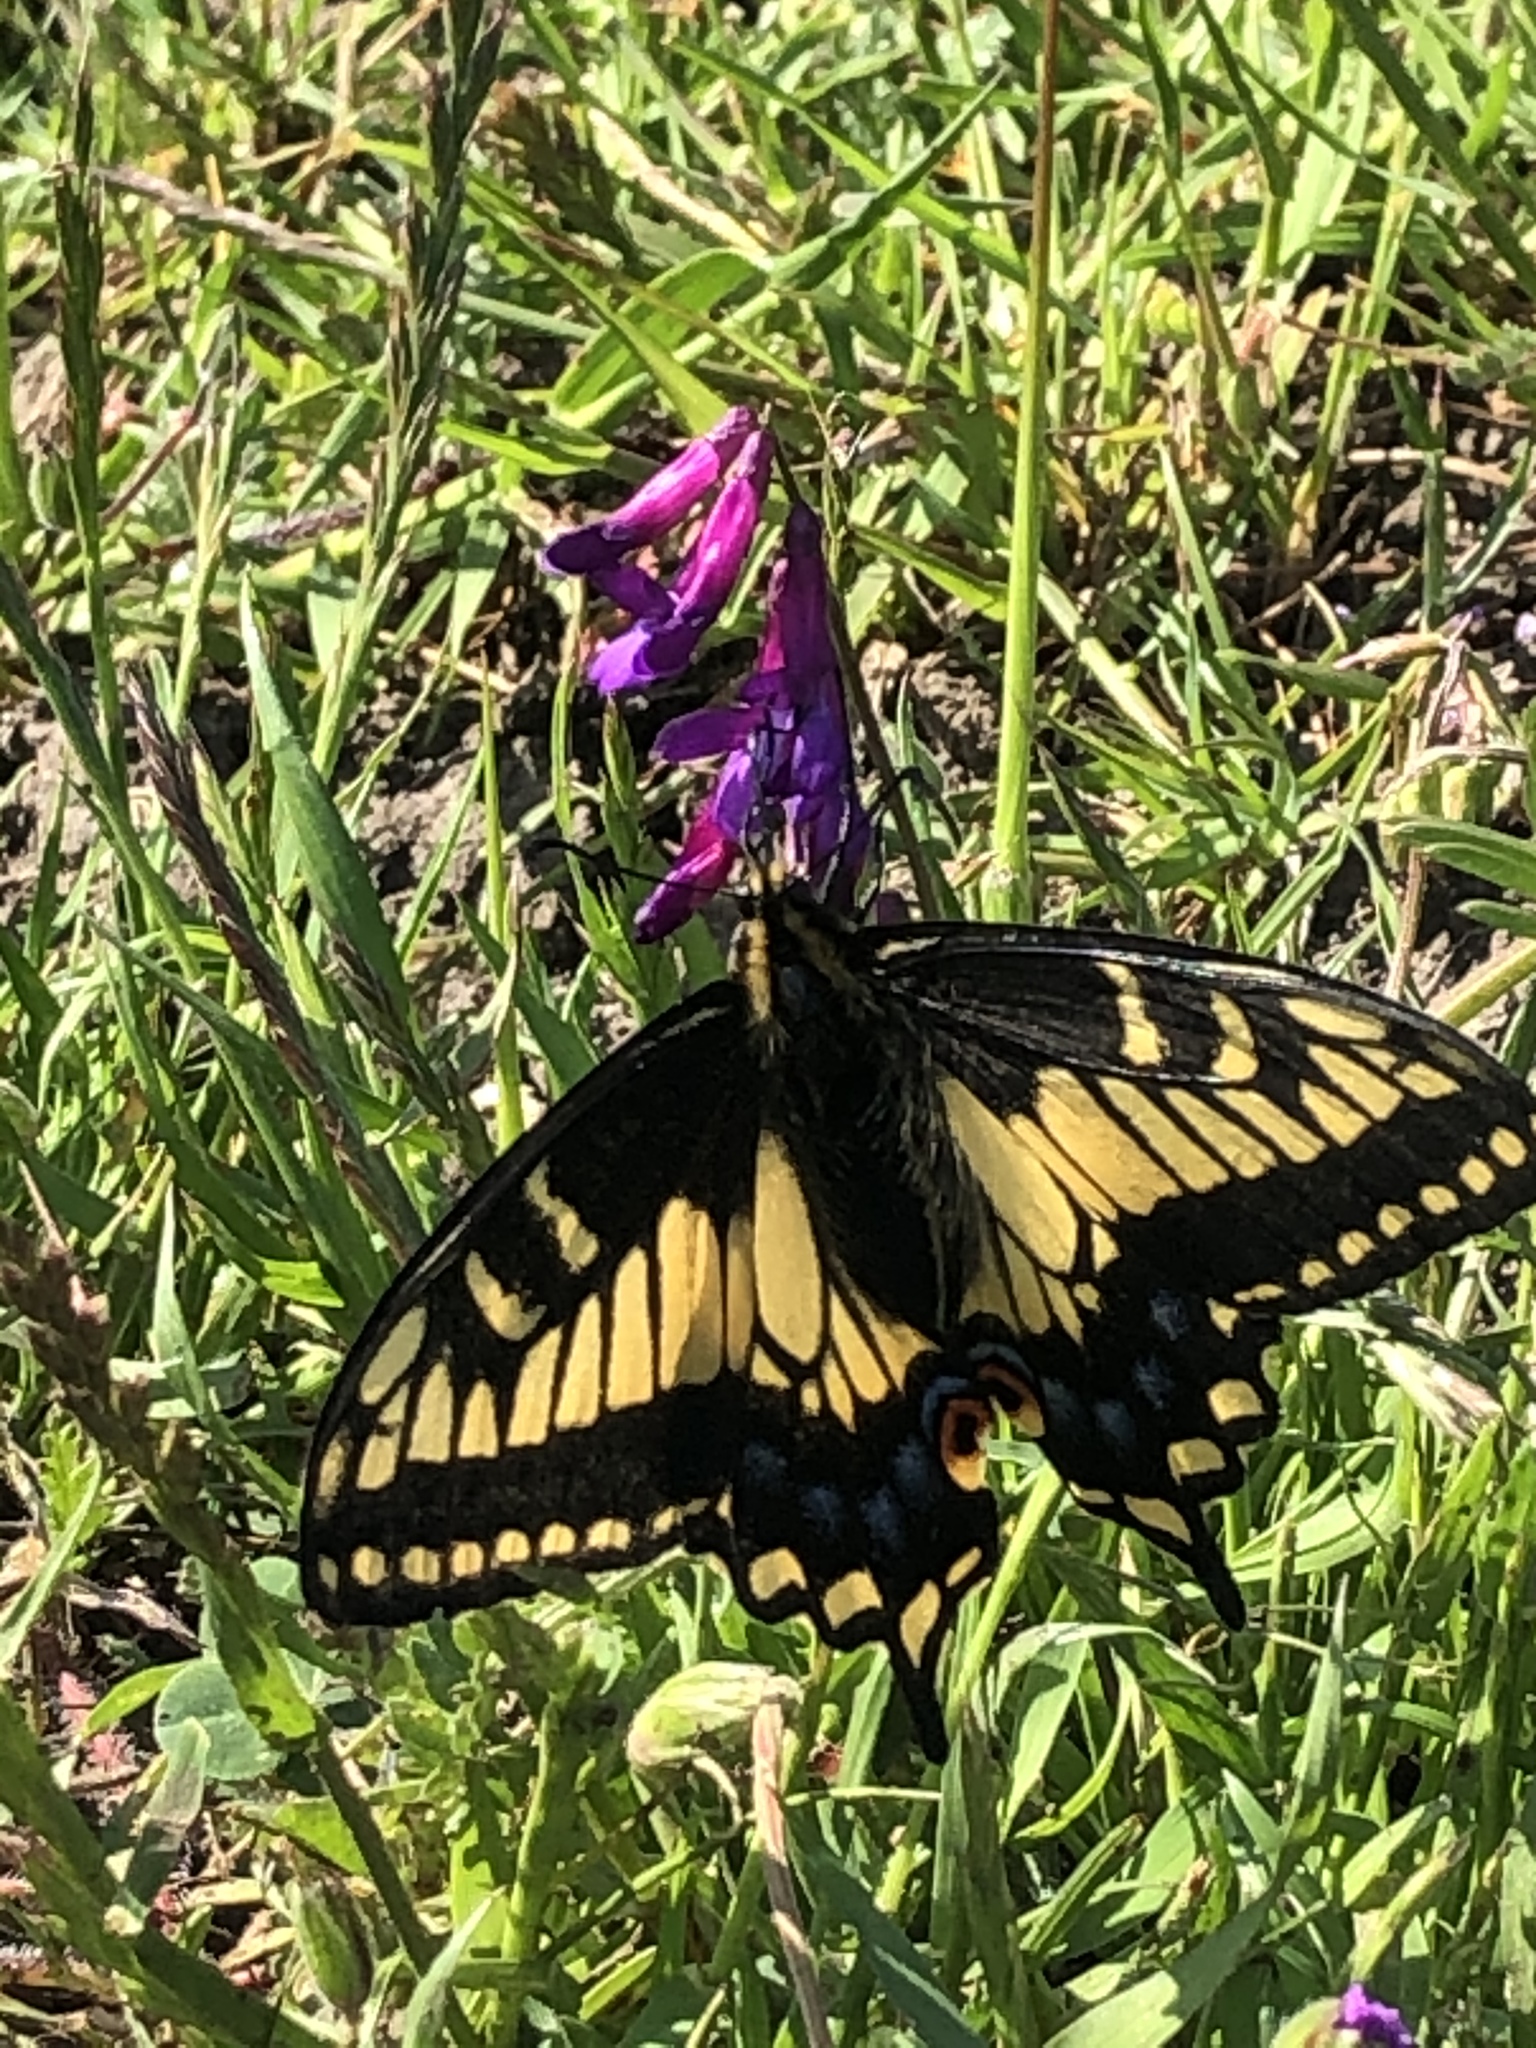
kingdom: Animalia
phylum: Arthropoda
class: Insecta
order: Lepidoptera
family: Papilionidae
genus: Papilio
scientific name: Papilio zelicaon
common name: Anise swallowtail
